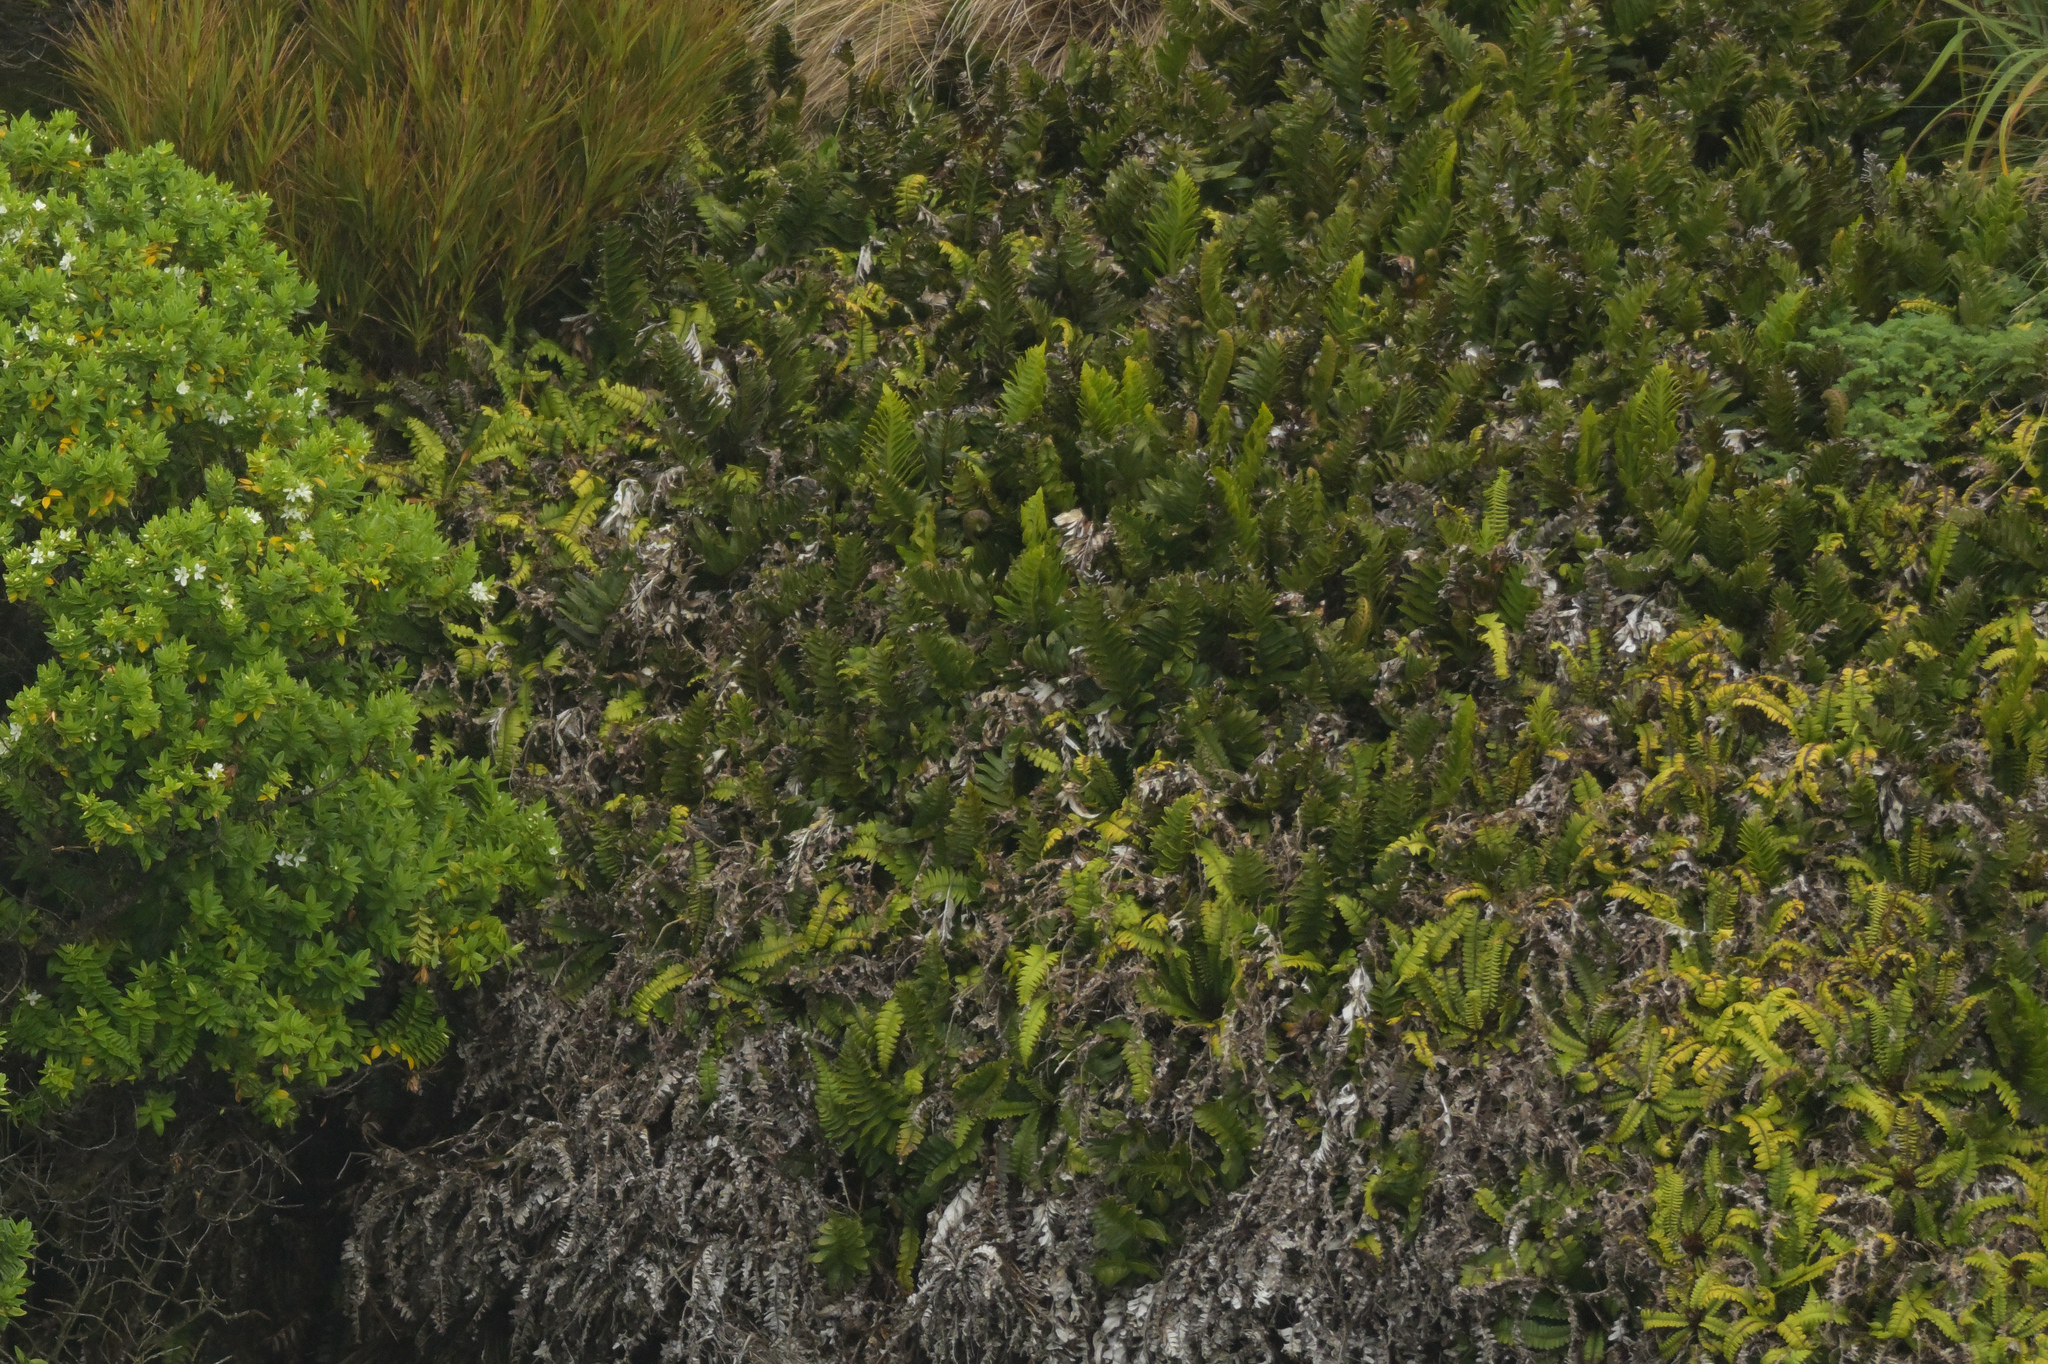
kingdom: Plantae
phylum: Tracheophyta
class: Polypodiopsida
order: Polypodiales
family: Aspleniaceae
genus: Asplenium
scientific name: Asplenium obtusatum
